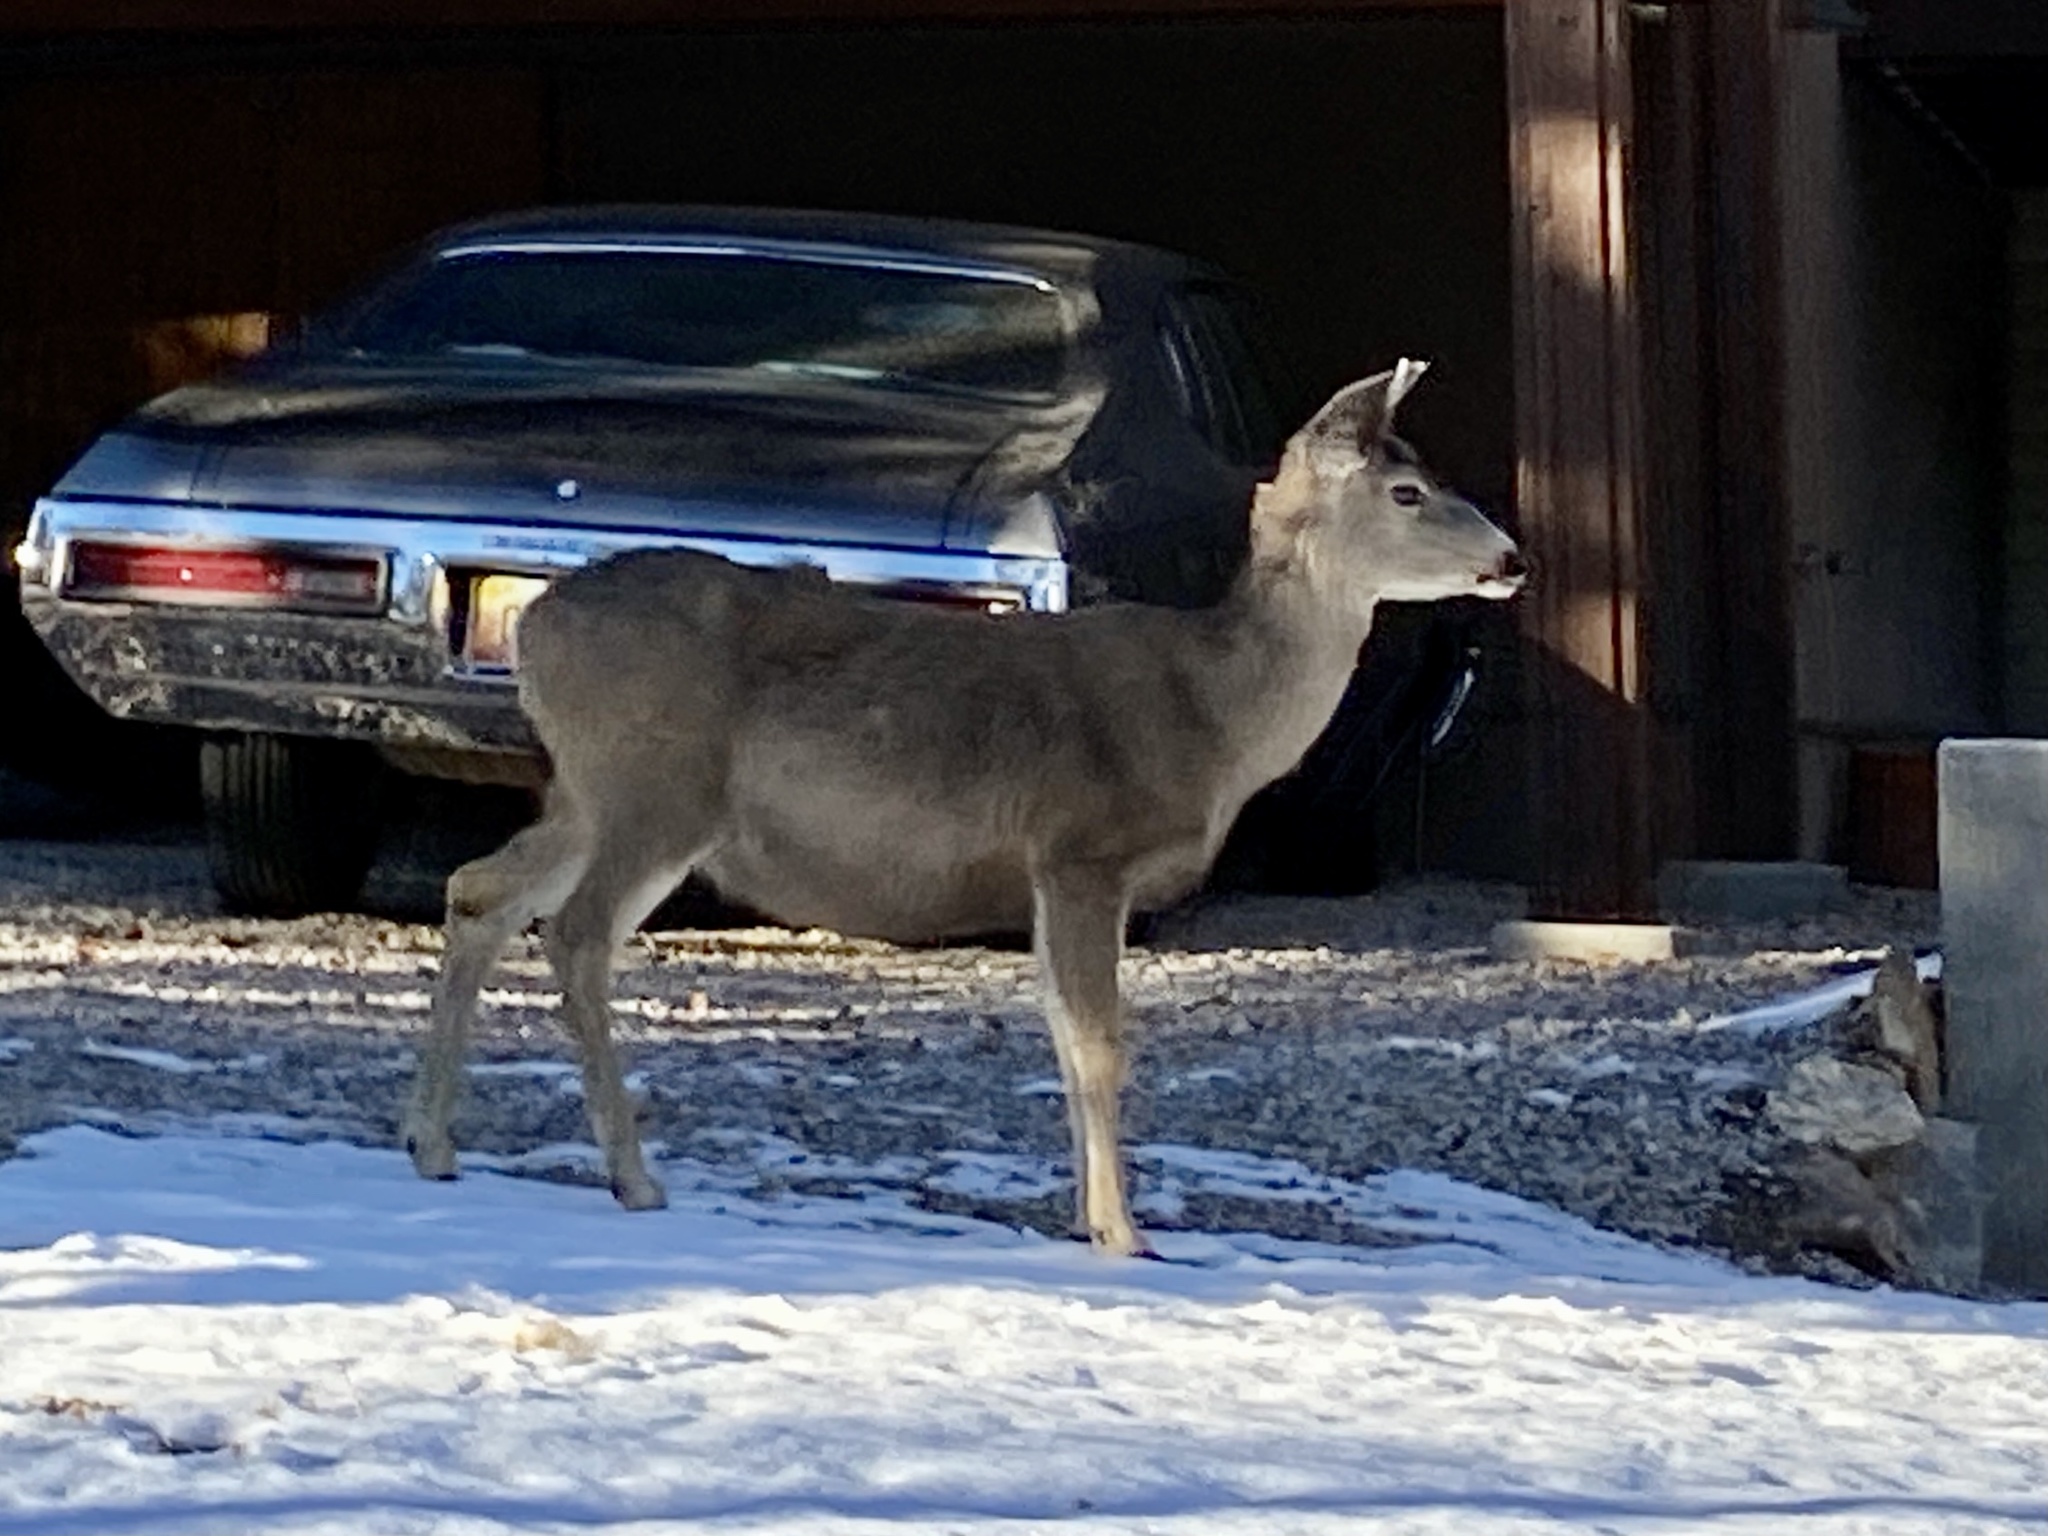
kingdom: Animalia
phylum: Chordata
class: Mammalia
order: Artiodactyla
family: Cervidae
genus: Odocoileus
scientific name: Odocoileus hemionus
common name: Mule deer
